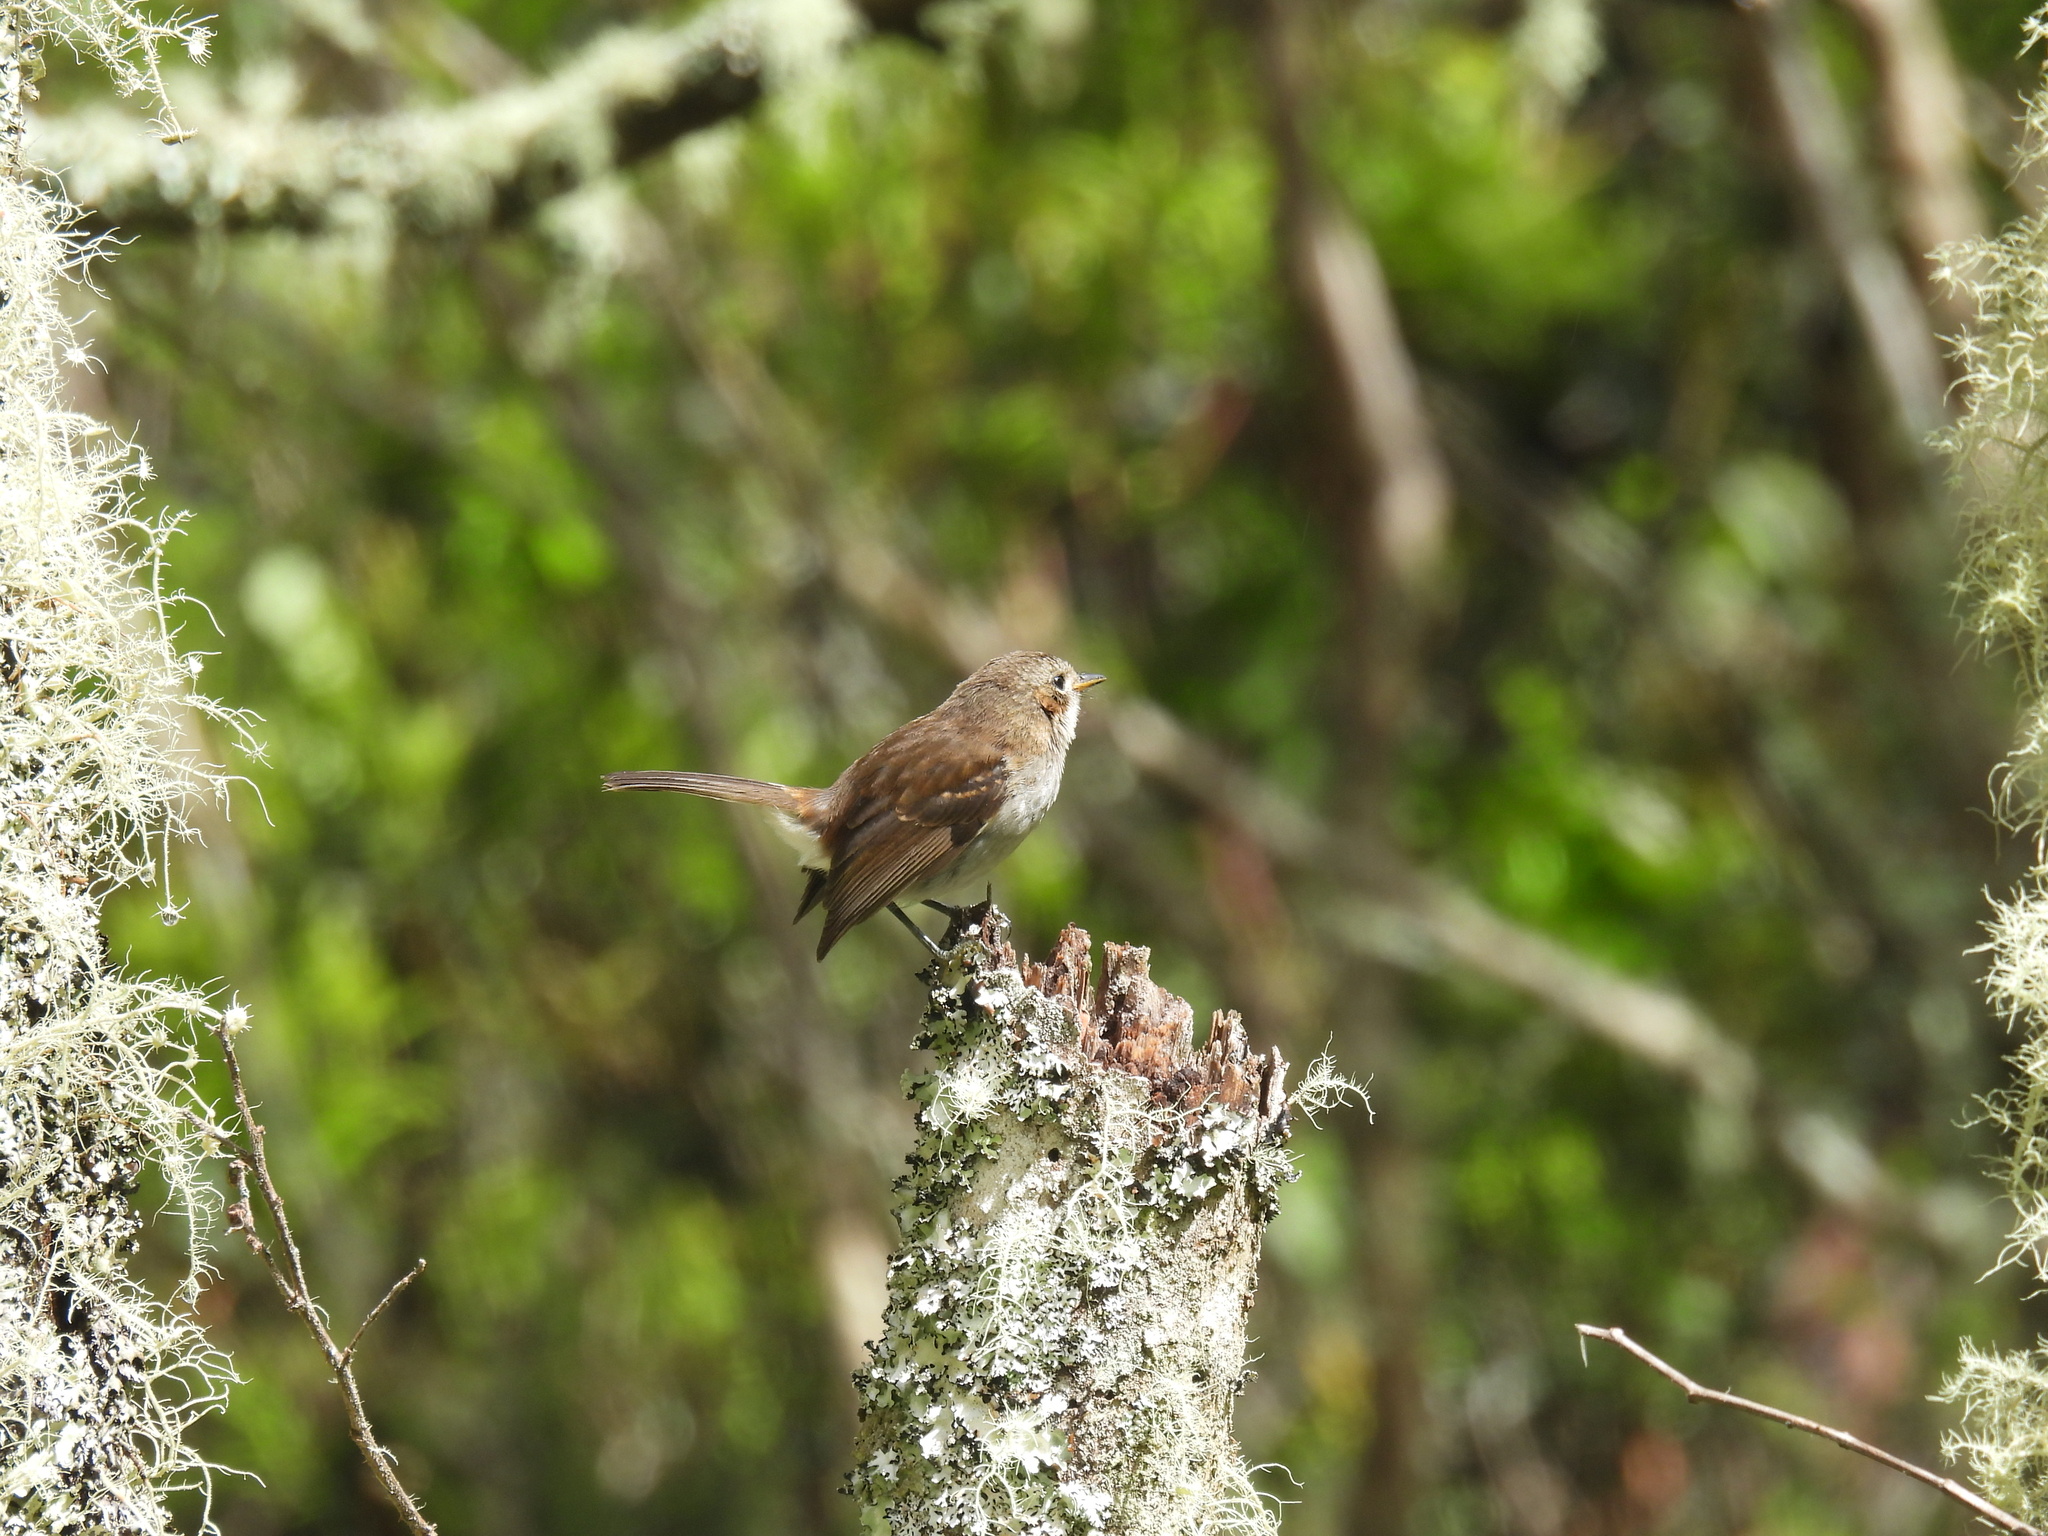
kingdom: Animalia
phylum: Chordata
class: Aves
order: Passeriformes
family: Monarchidae
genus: Chasiempis
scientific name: Chasiempis sandwichensis
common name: Hawaii elepaio
